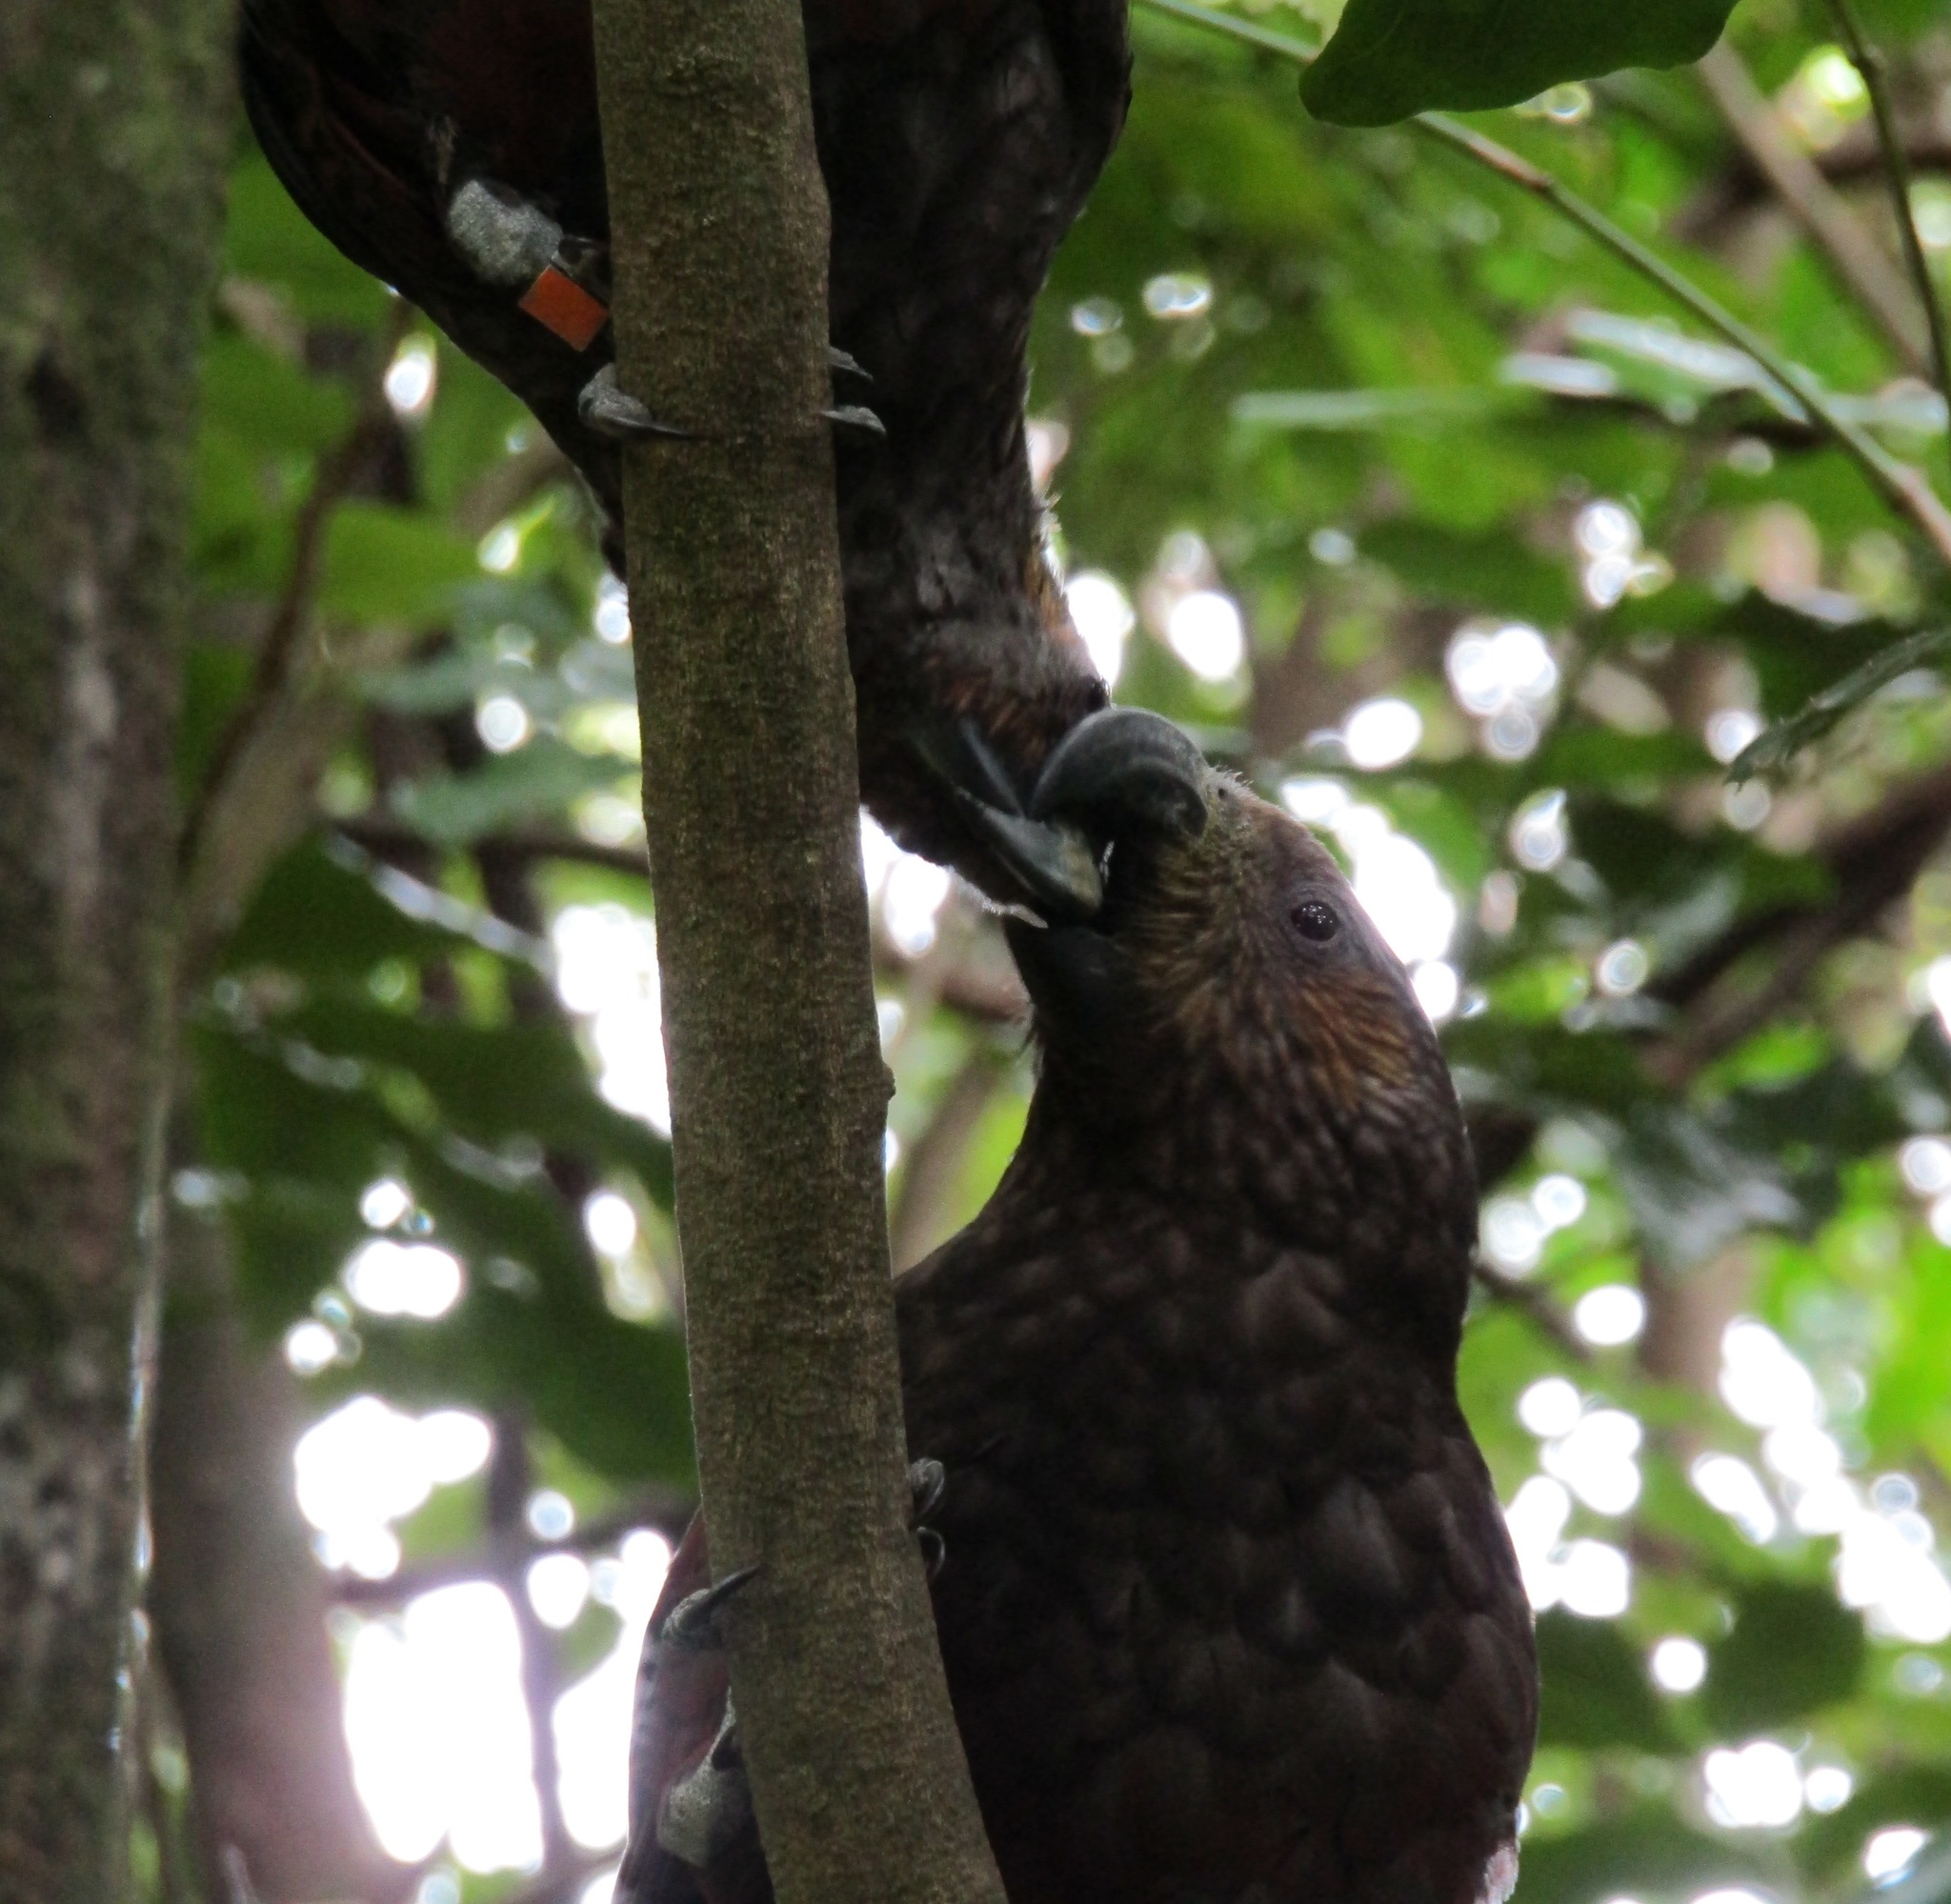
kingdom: Animalia
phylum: Chordata
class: Aves
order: Psittaciformes
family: Psittacidae
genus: Nestor
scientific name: Nestor meridionalis
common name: New zealand kaka
